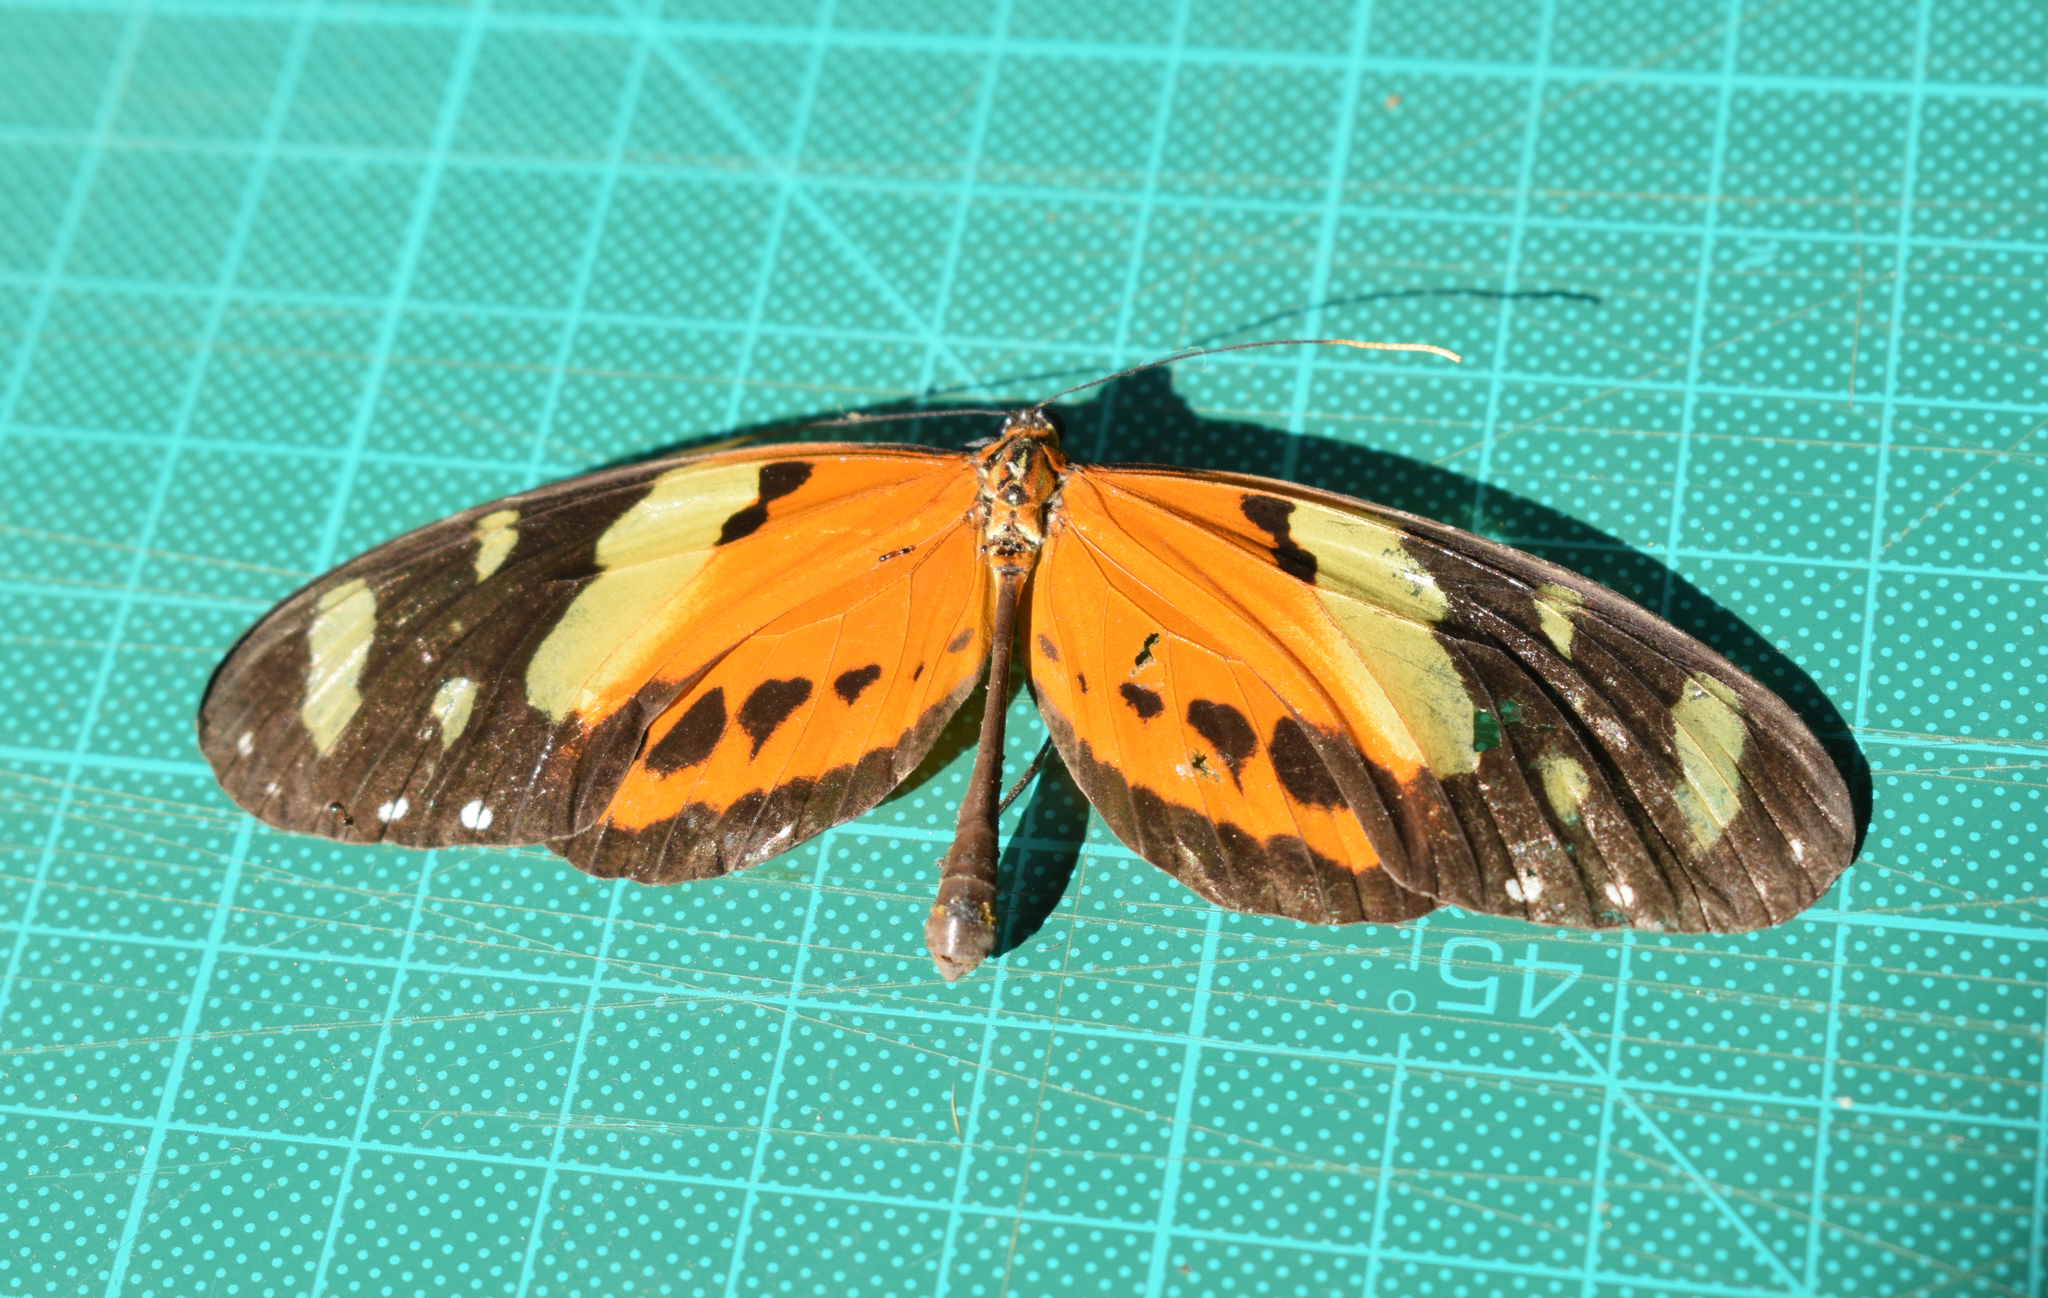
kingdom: Animalia
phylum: Arthropoda
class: Insecta
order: Lepidoptera
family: Nymphalidae
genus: Melinaea
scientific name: Melinaea ludovica
